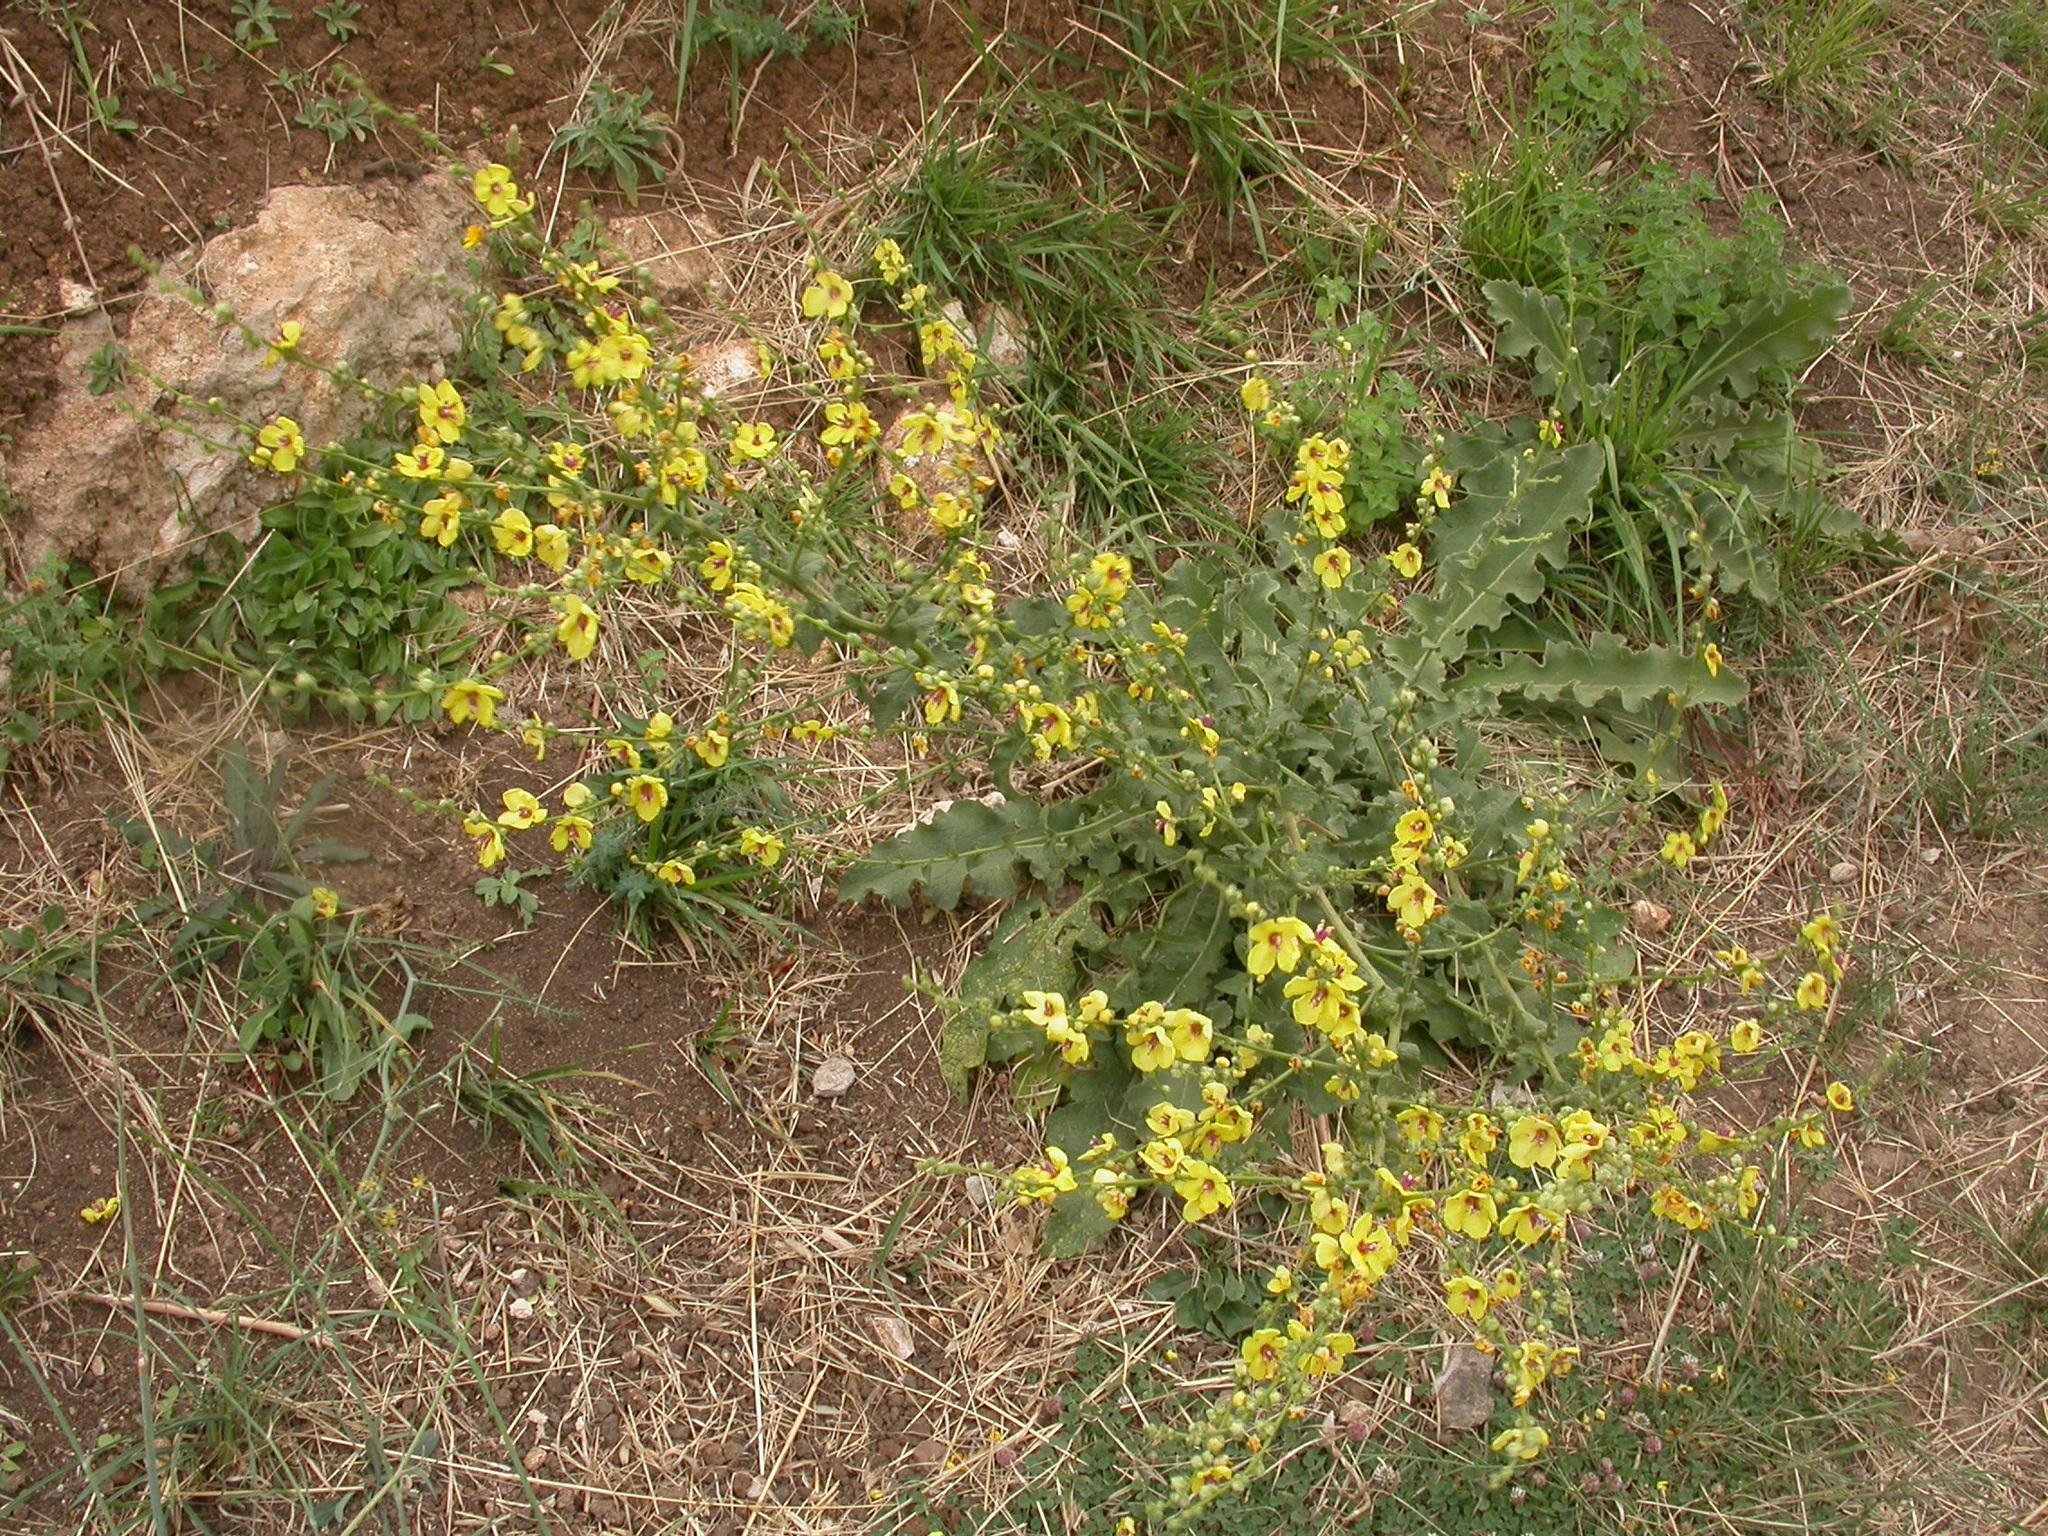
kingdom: Plantae
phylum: Tracheophyta
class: Magnoliopsida
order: Lamiales
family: Scrophulariaceae
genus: Verbascum
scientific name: Verbascum sinuatum
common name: Wavyleaf mullein
